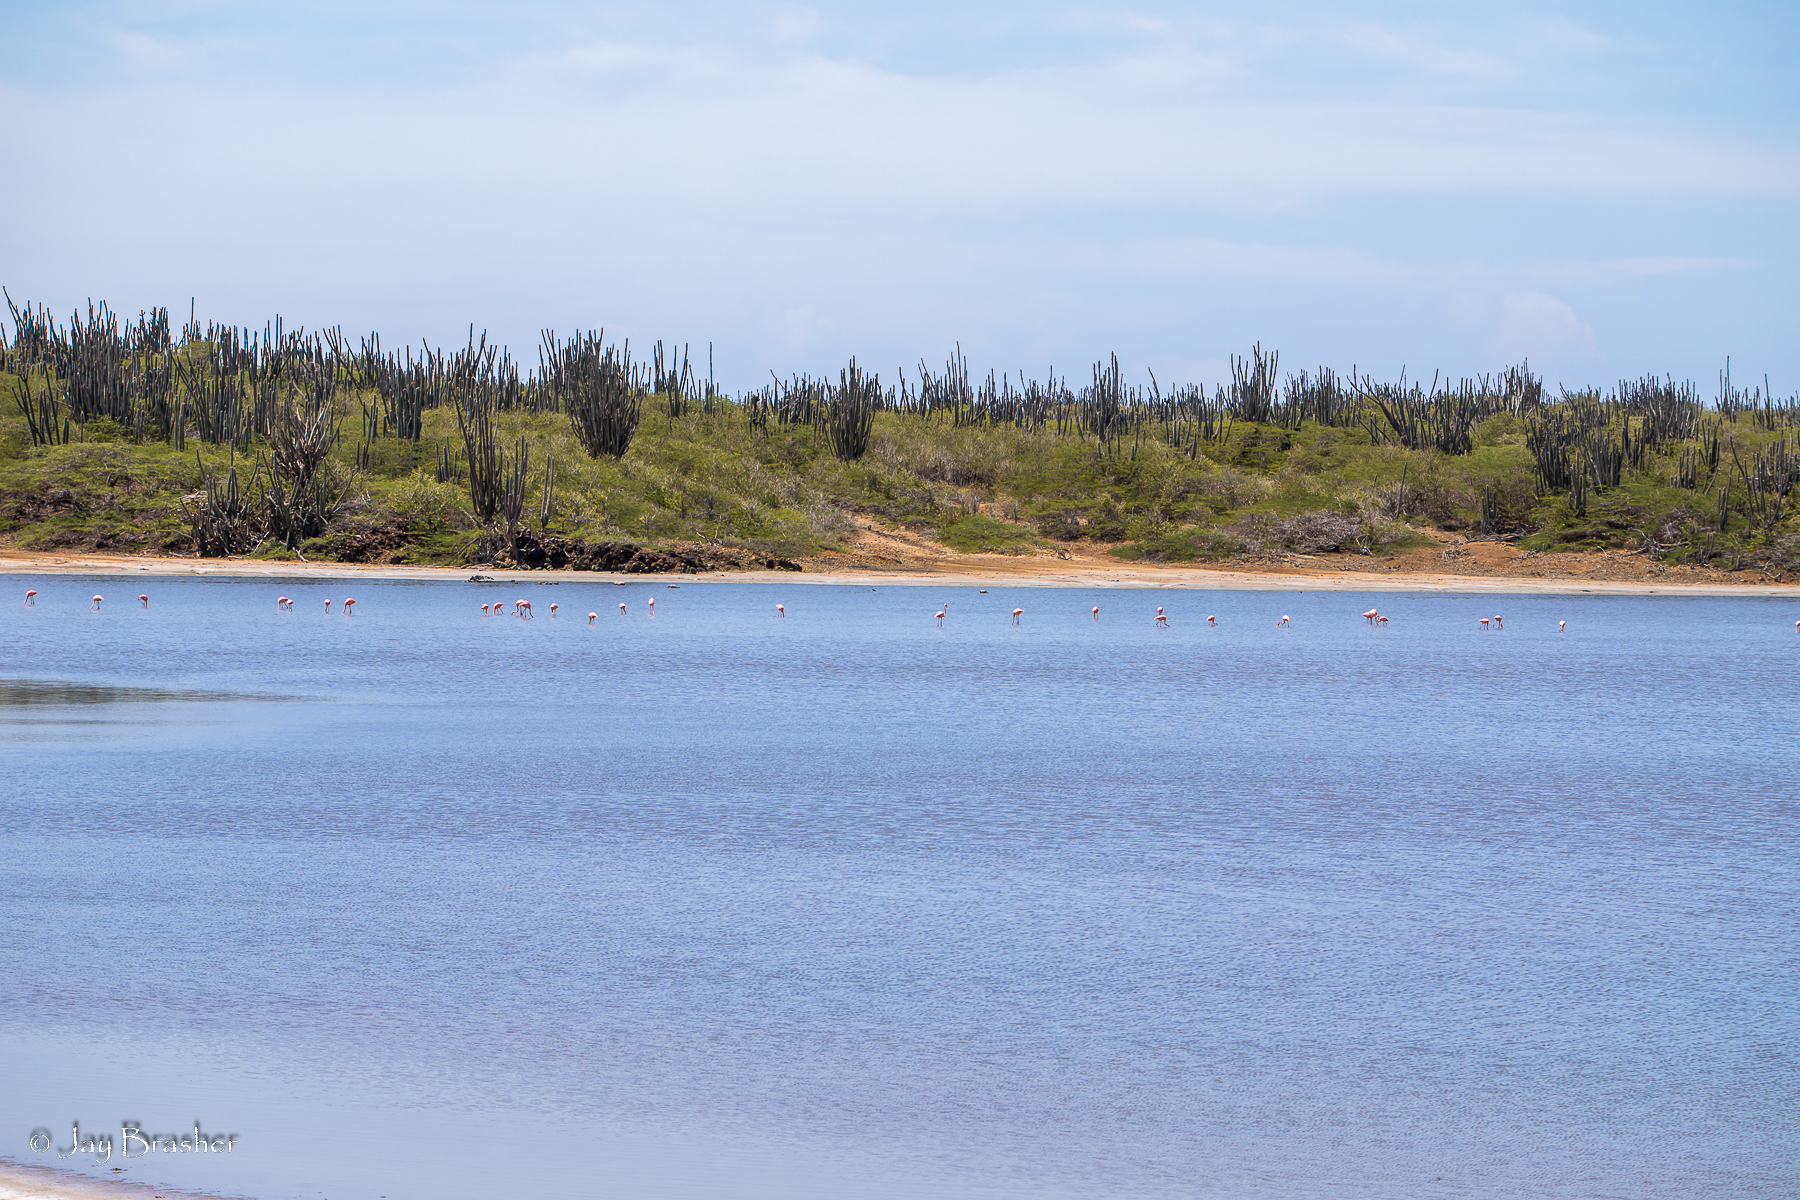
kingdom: Animalia
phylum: Chordata
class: Aves
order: Phoenicopteriformes
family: Phoenicopteridae
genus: Phoenicopterus
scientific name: Phoenicopterus ruber
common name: American flamingo
